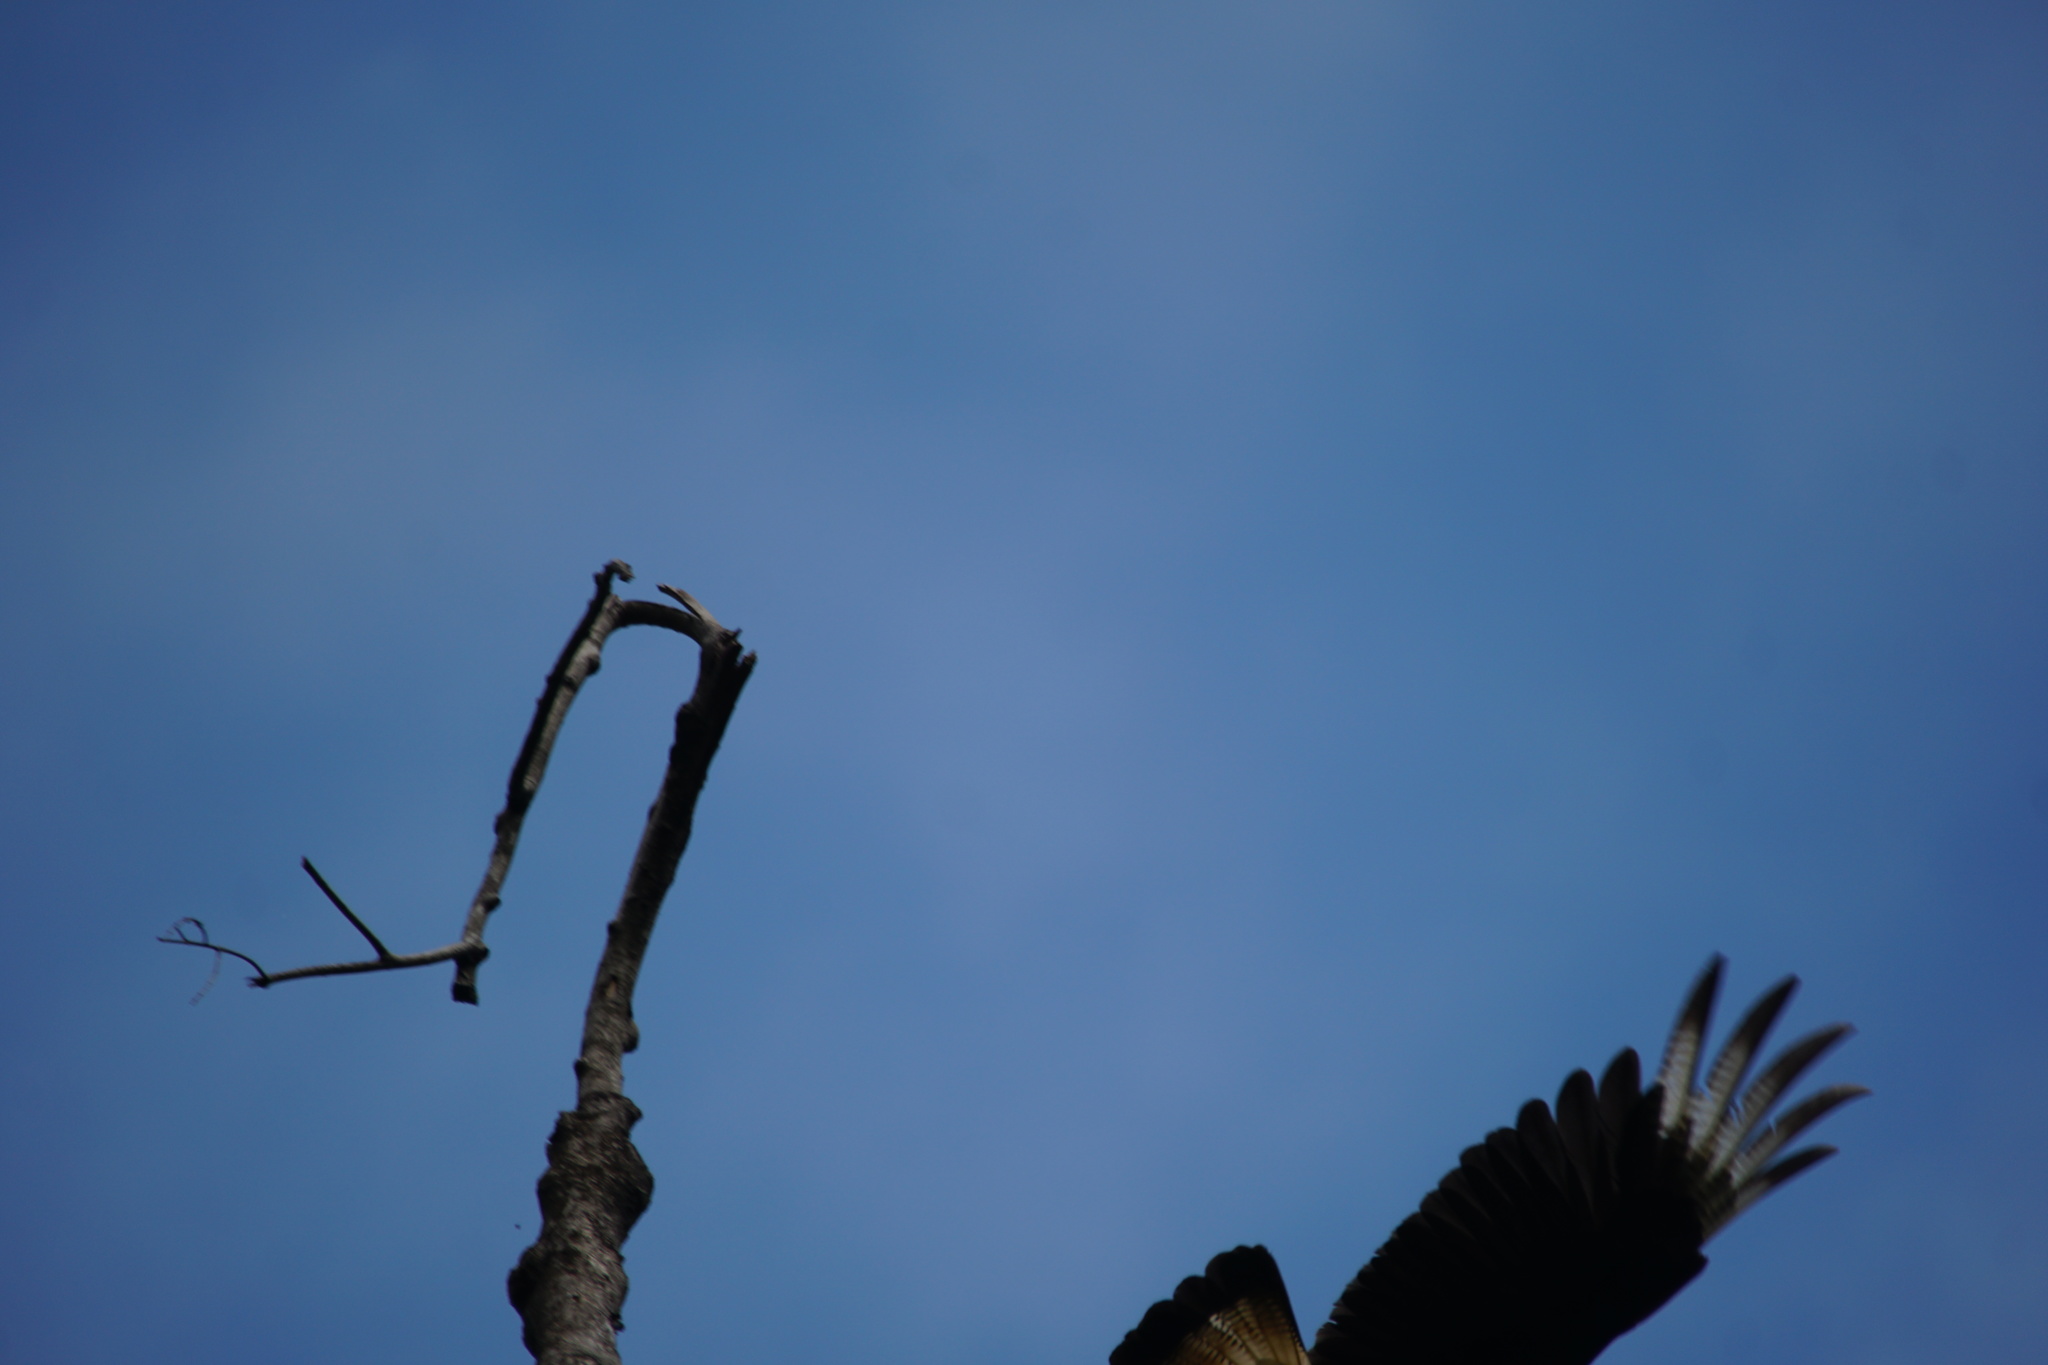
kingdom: Animalia
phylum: Chordata
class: Aves
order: Falconiformes
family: Falconidae
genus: Caracara
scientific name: Caracara plancus
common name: Southern caracara
